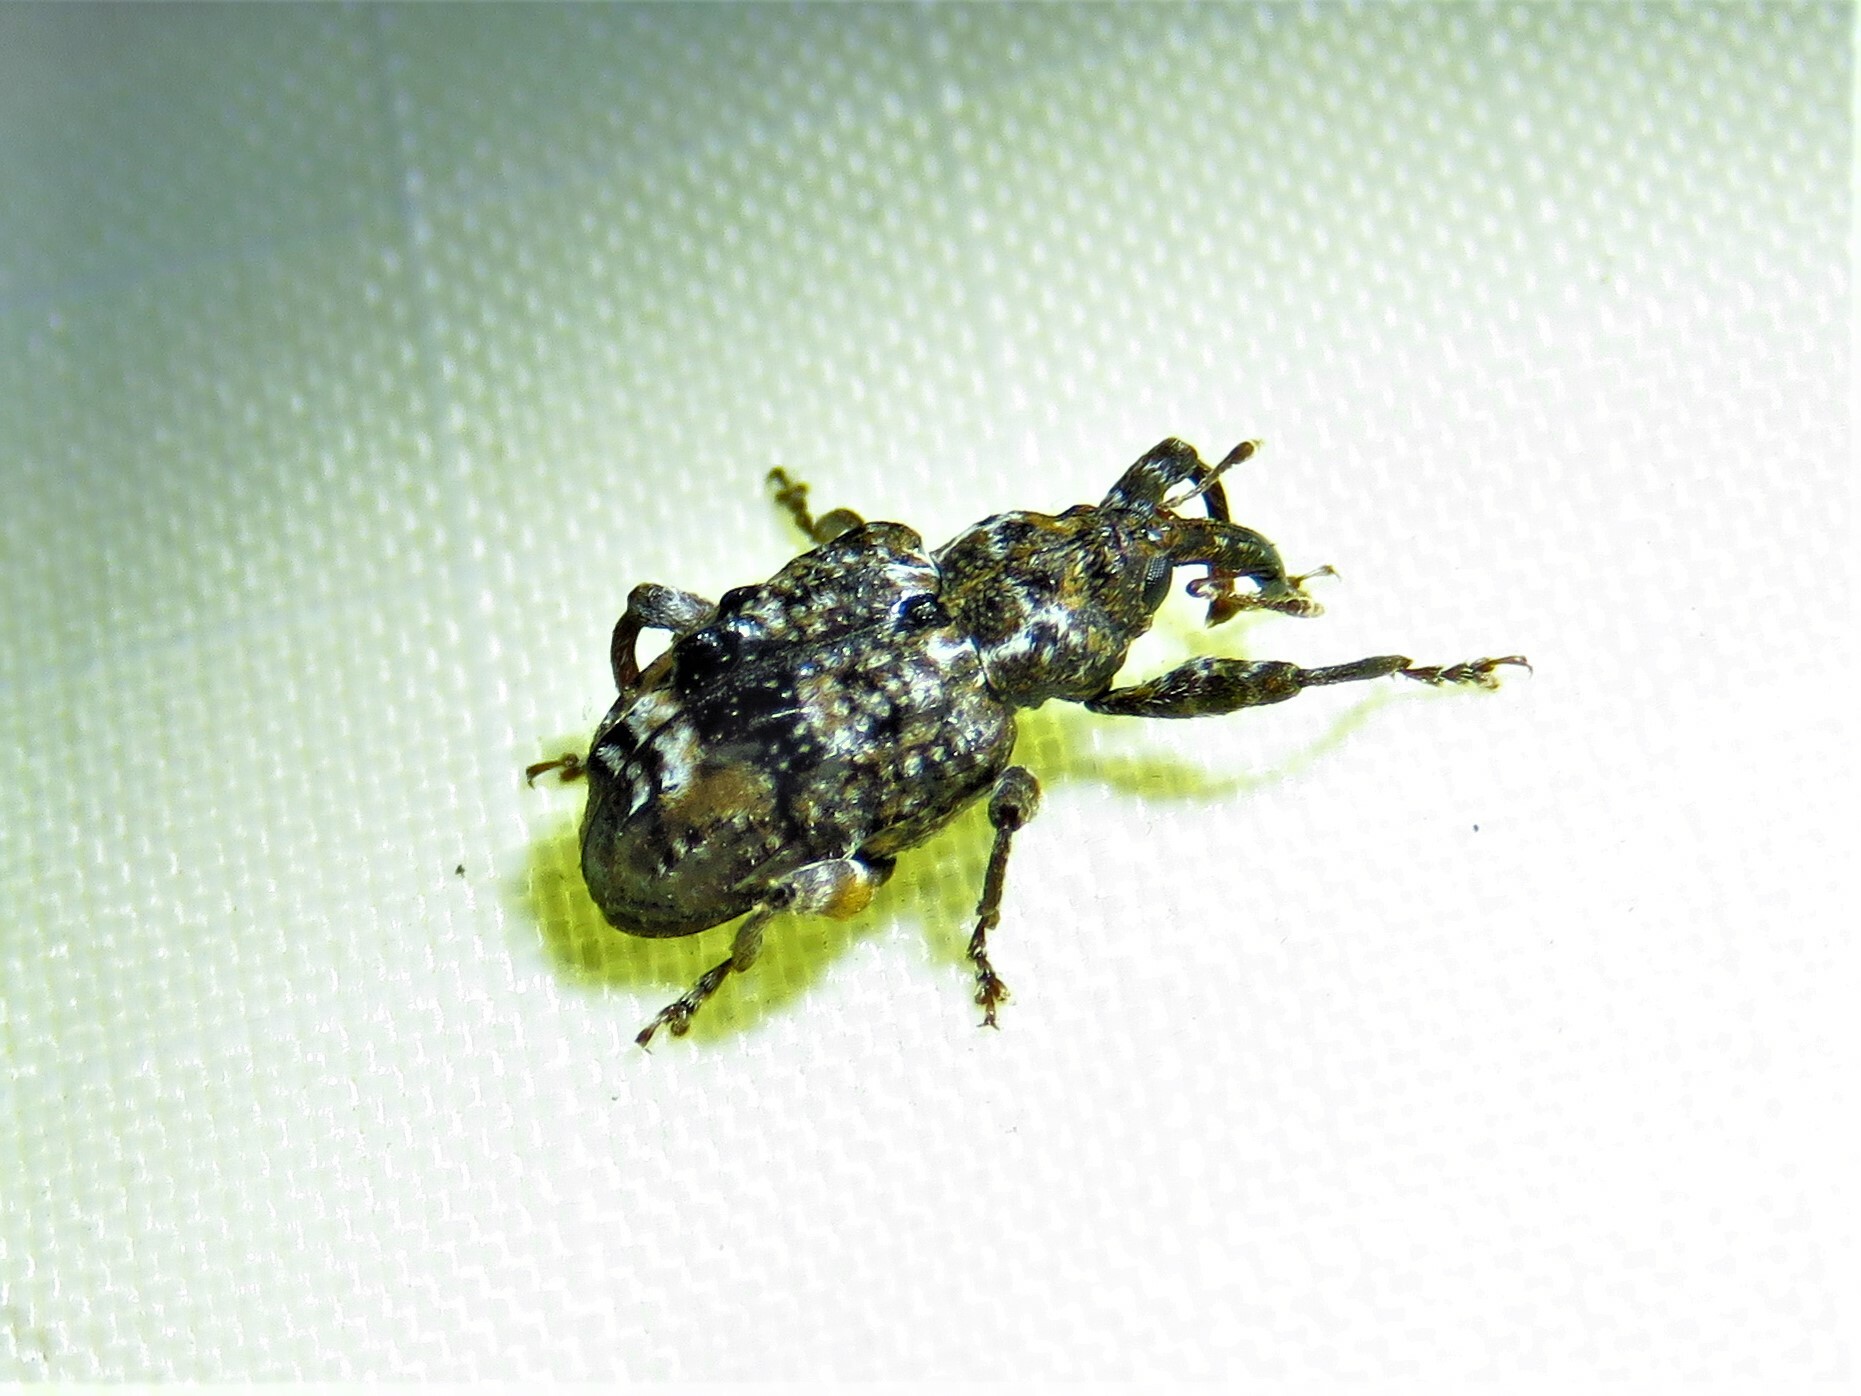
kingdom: Animalia
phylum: Arthropoda
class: Insecta
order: Coleoptera
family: Curculionidae
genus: Conotrachelus
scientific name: Conotrachelus nenuphar
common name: Plum curculio
